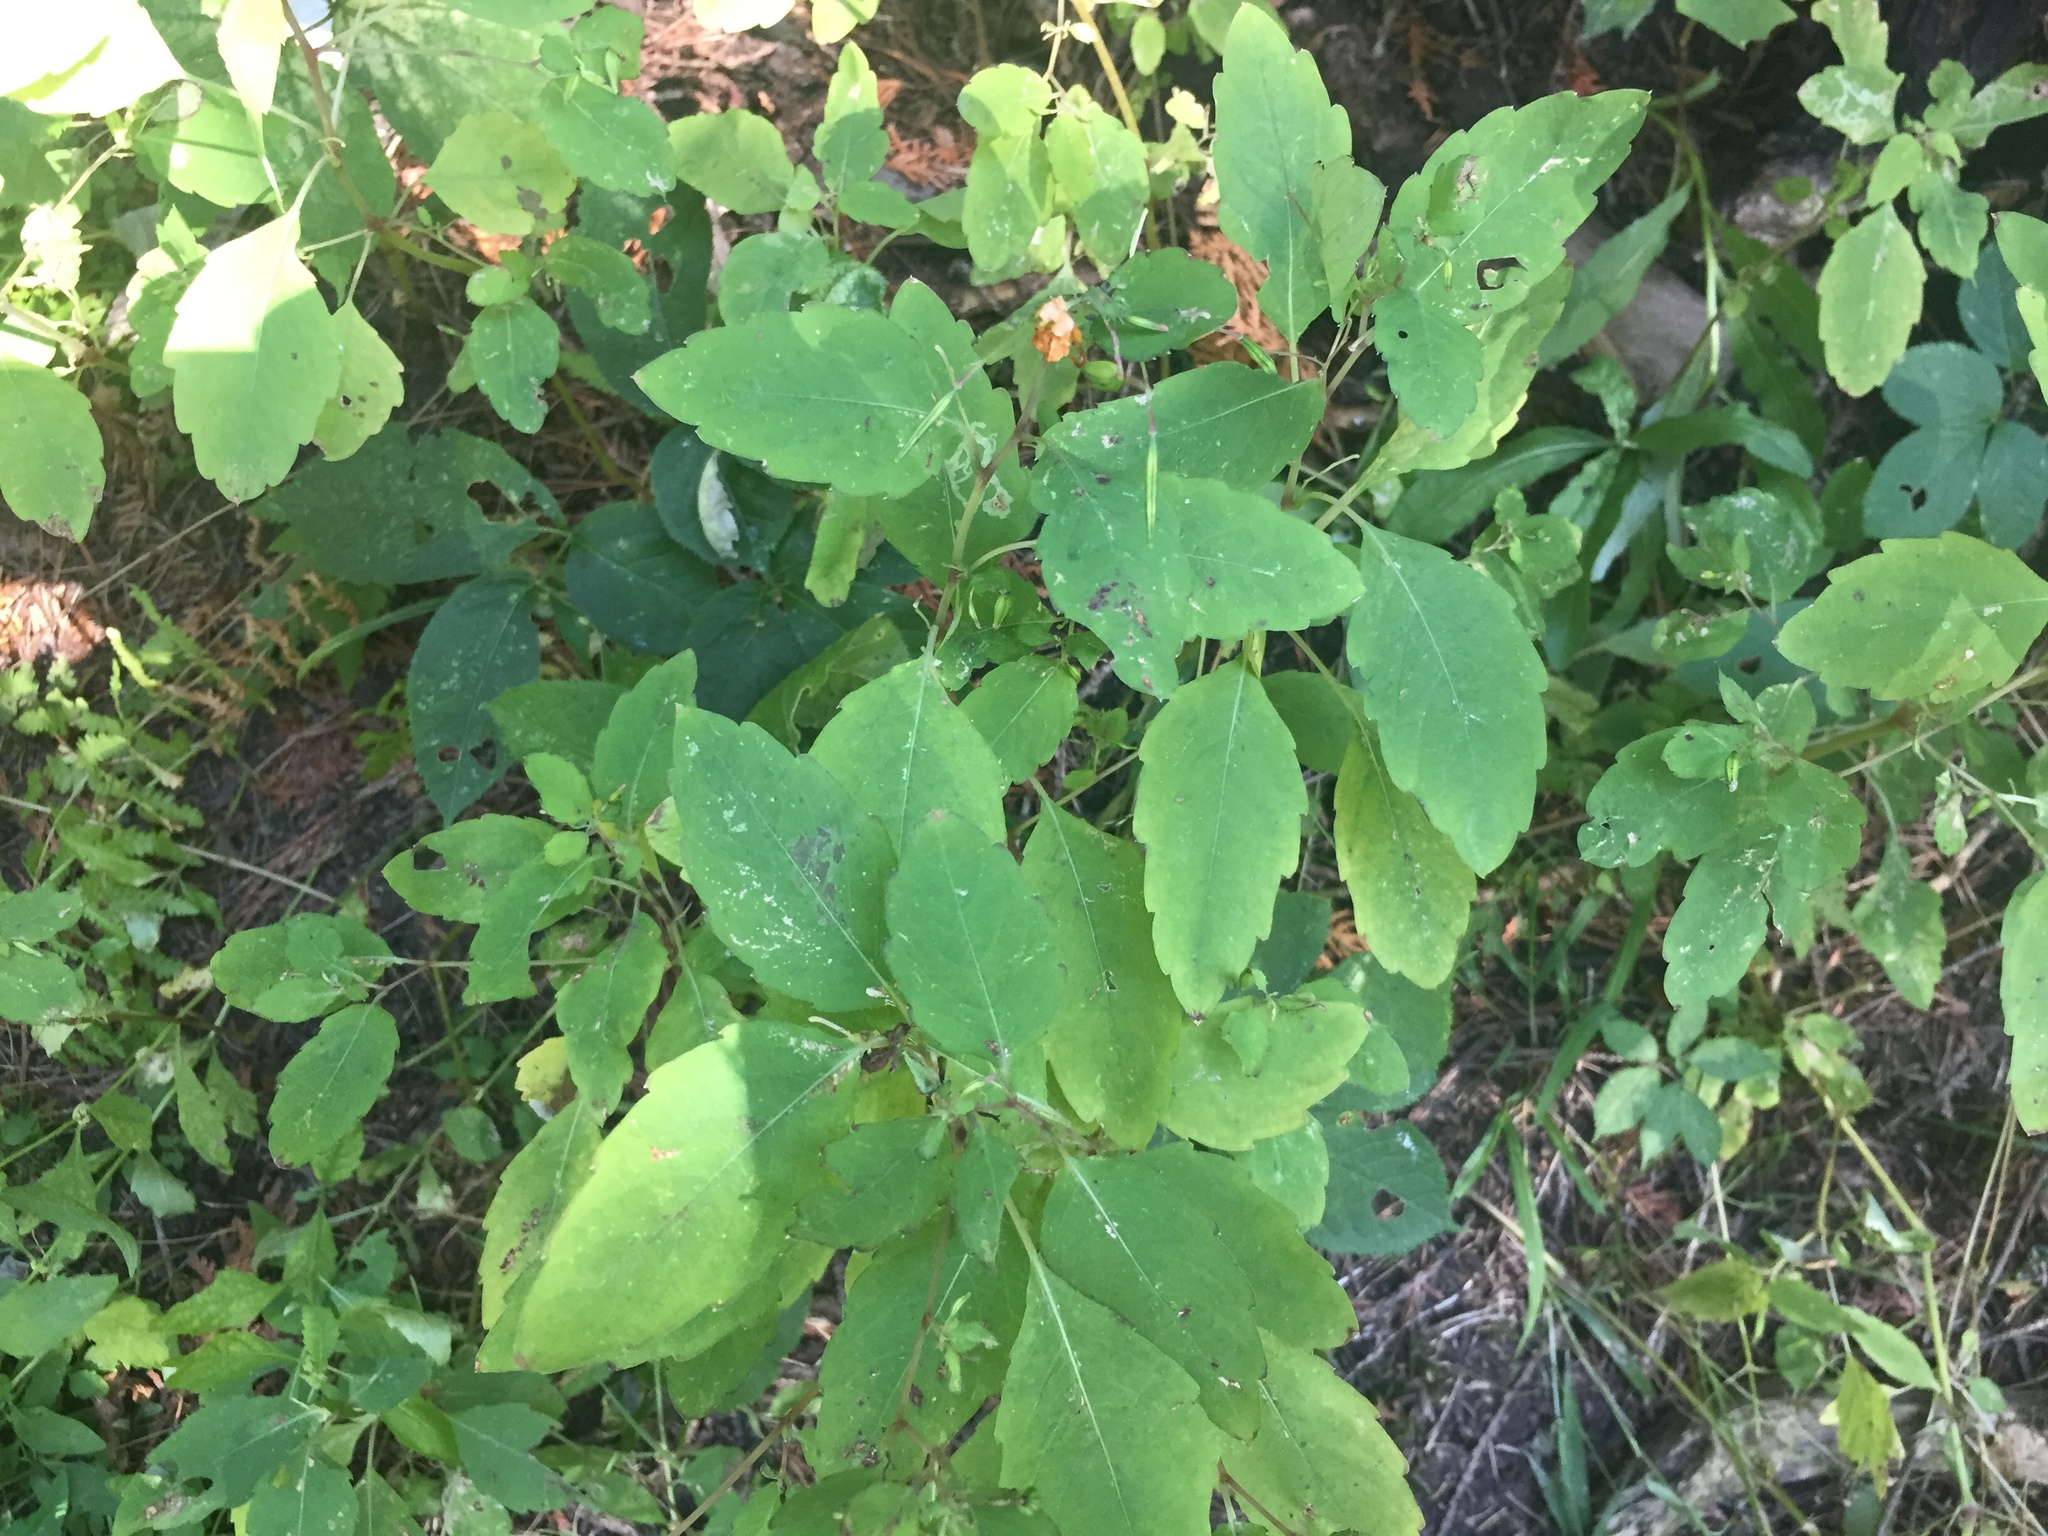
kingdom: Plantae
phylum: Tracheophyta
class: Magnoliopsida
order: Ericales
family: Balsaminaceae
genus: Impatiens
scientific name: Impatiens capensis
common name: Orange balsam
